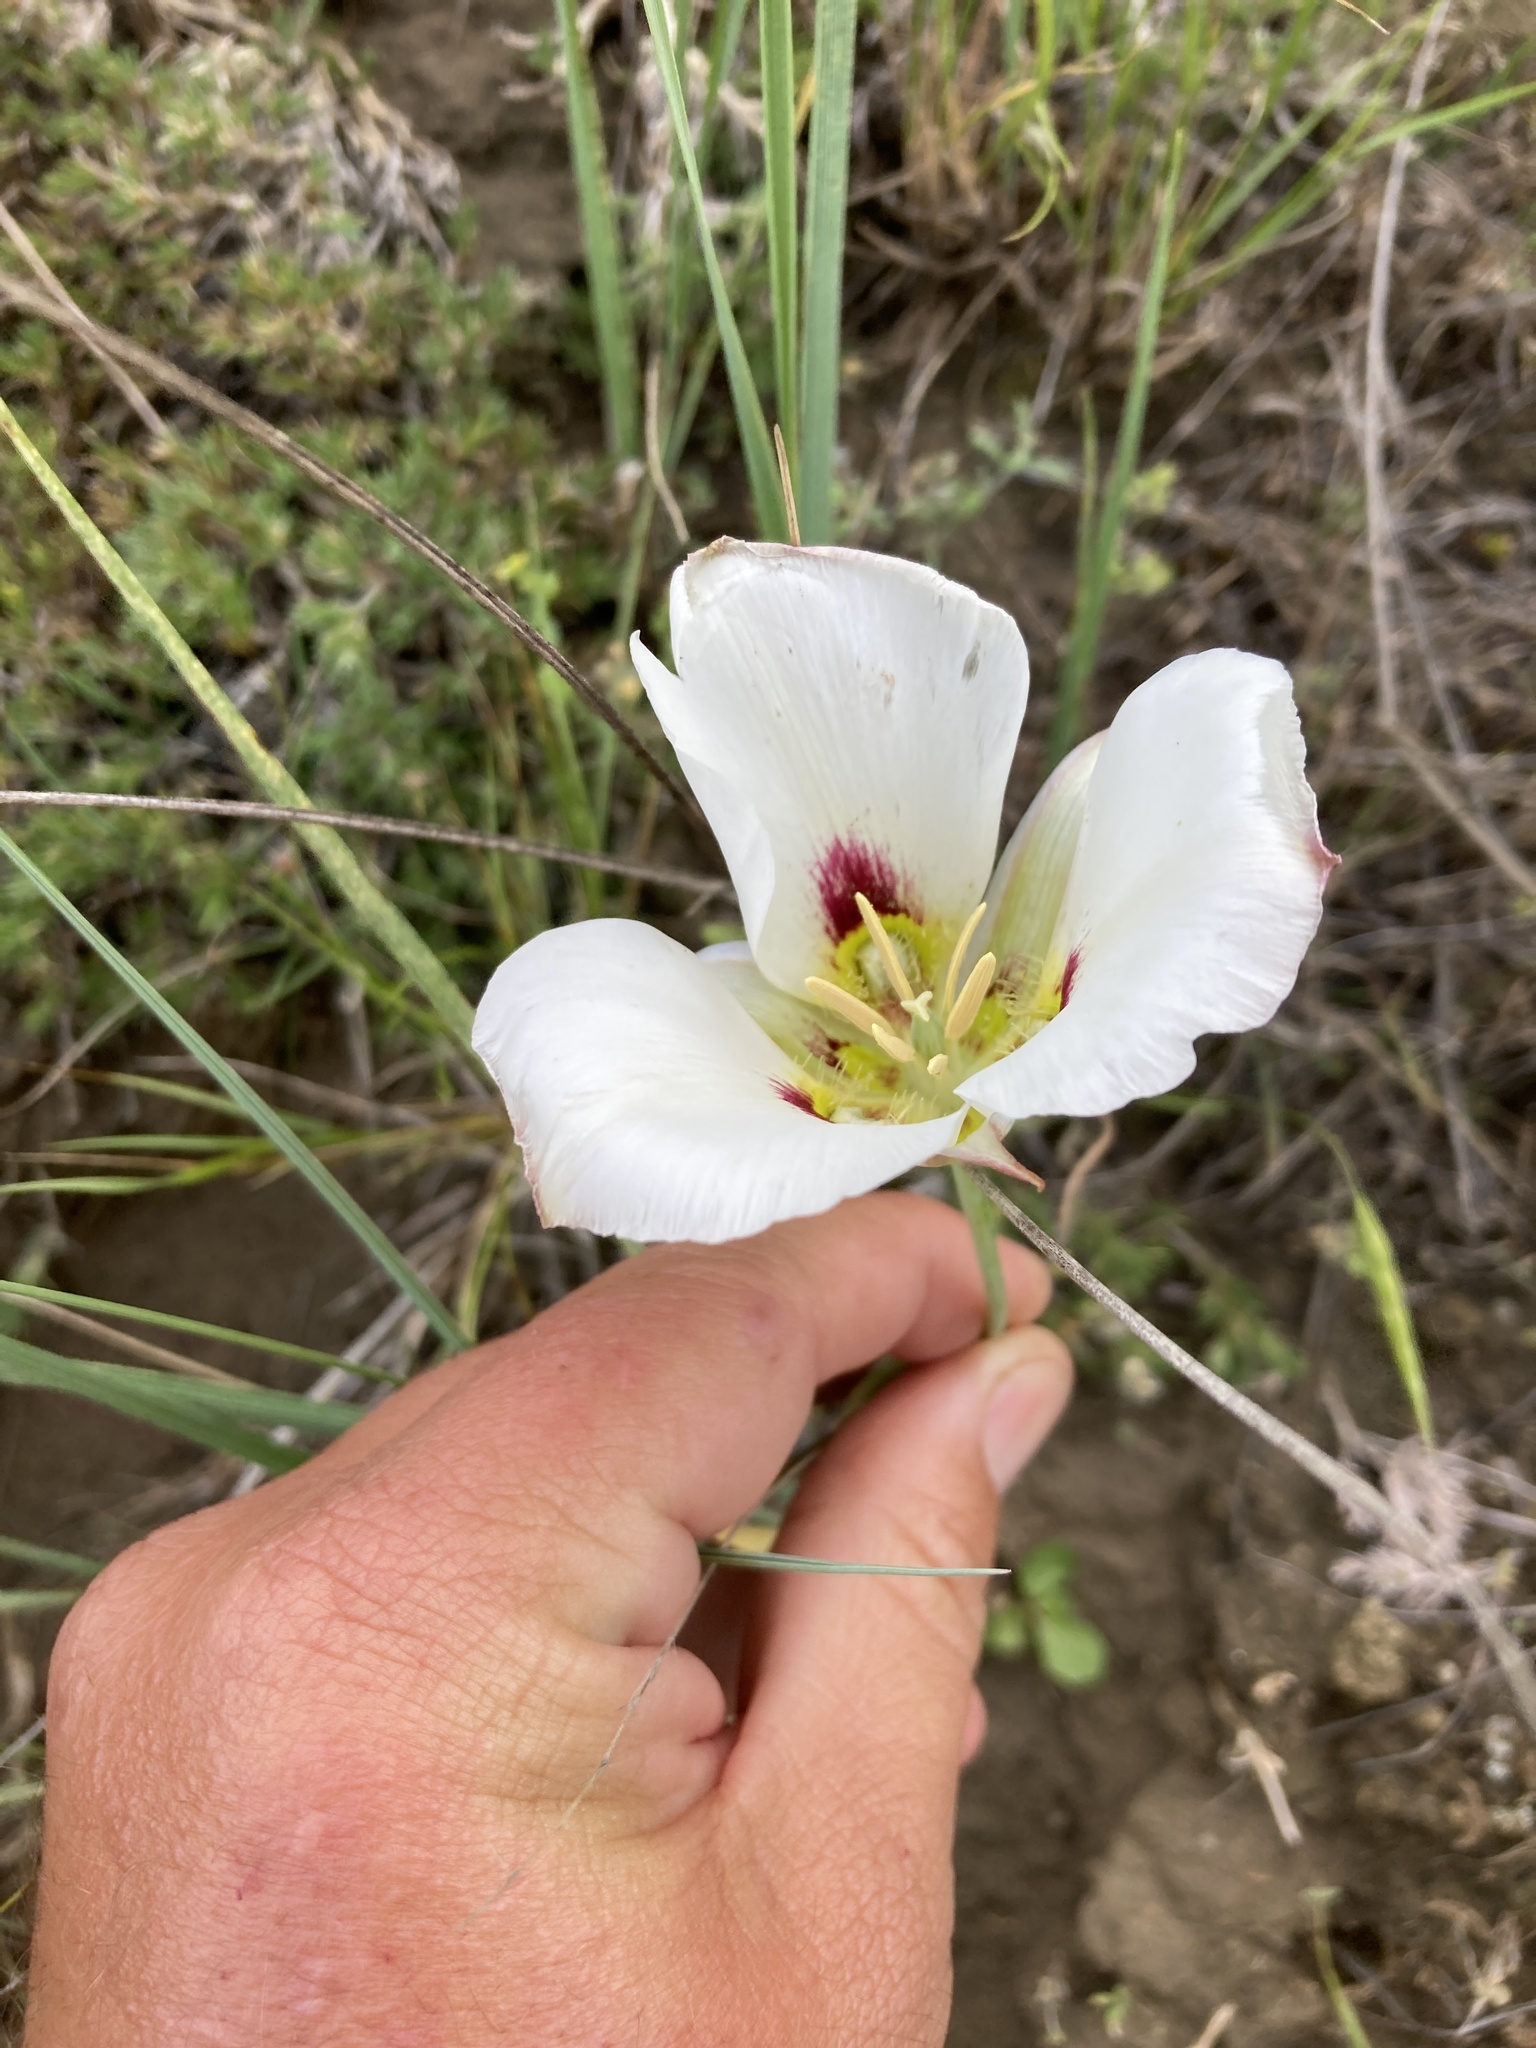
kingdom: Plantae
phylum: Tracheophyta
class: Liliopsida
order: Liliales
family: Liliaceae
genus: Calochortus
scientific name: Calochortus nuttallii
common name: Sego-lily
